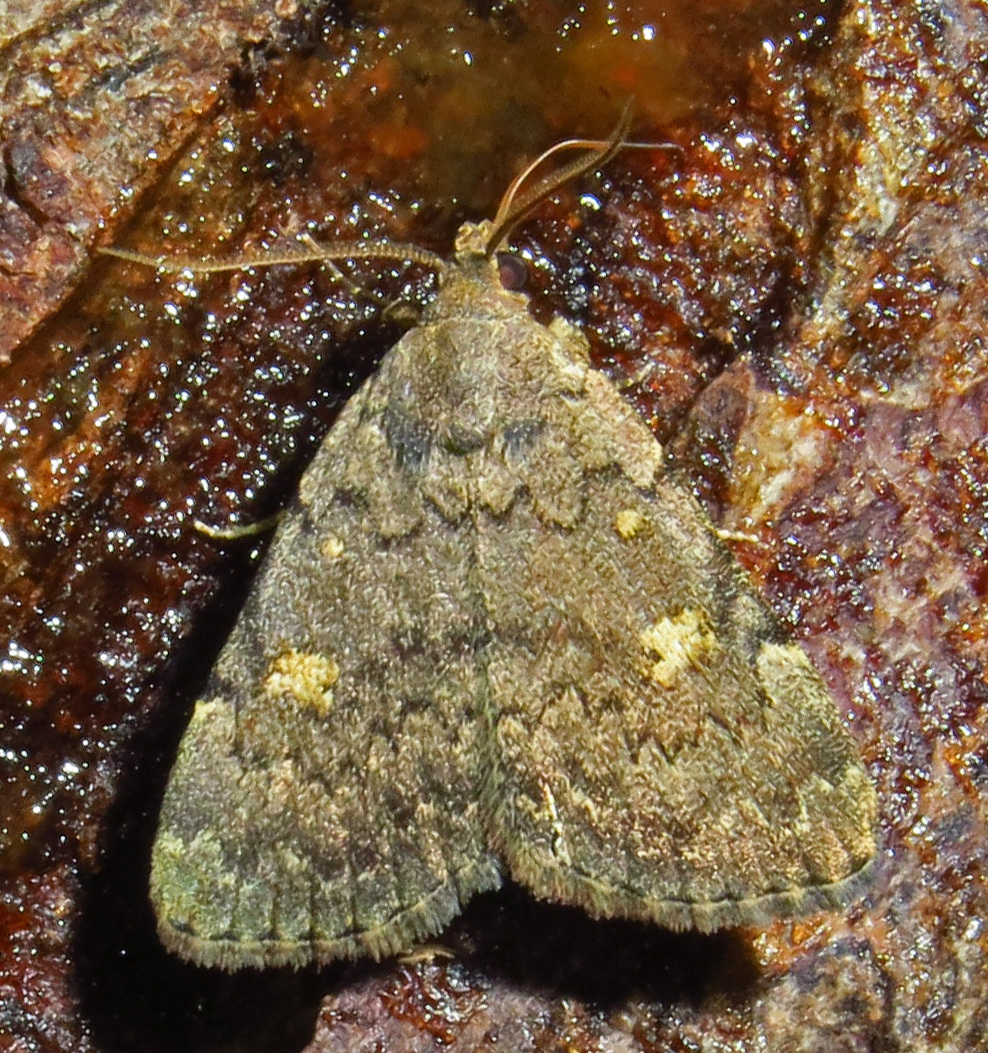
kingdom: Animalia
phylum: Arthropoda
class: Insecta
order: Lepidoptera
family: Erebidae
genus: Idia
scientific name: Idia aemula
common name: Common idia moth
